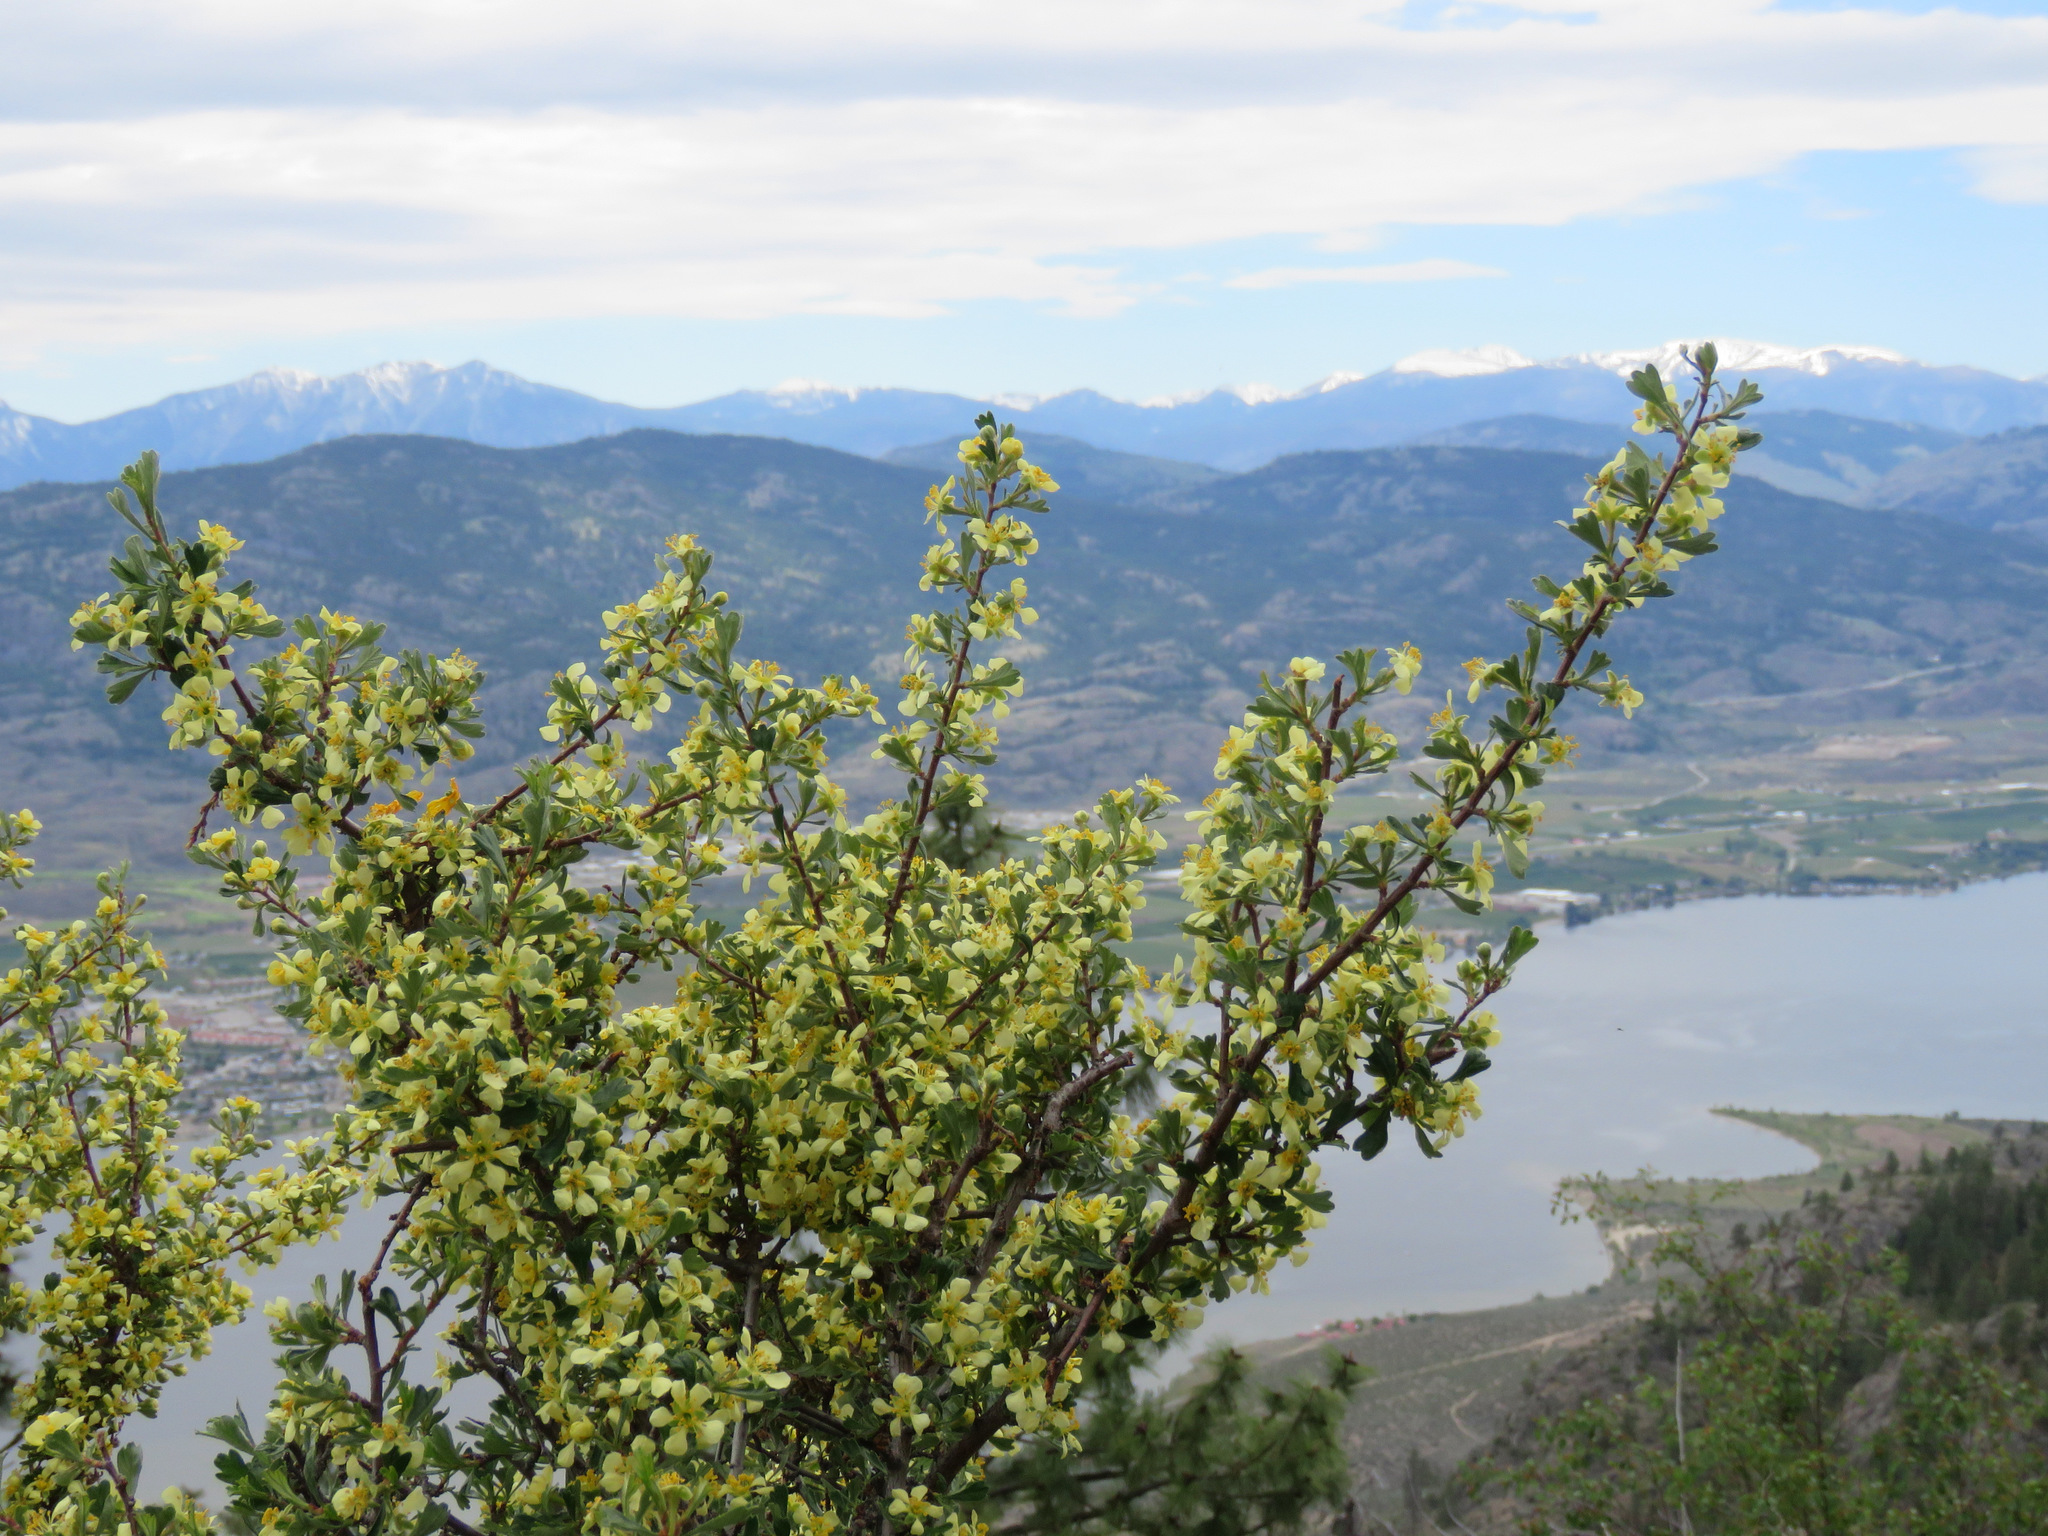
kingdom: Plantae
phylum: Tracheophyta
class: Magnoliopsida
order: Rosales
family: Rosaceae
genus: Purshia
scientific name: Purshia tridentata
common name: Antelope bitterbrush
